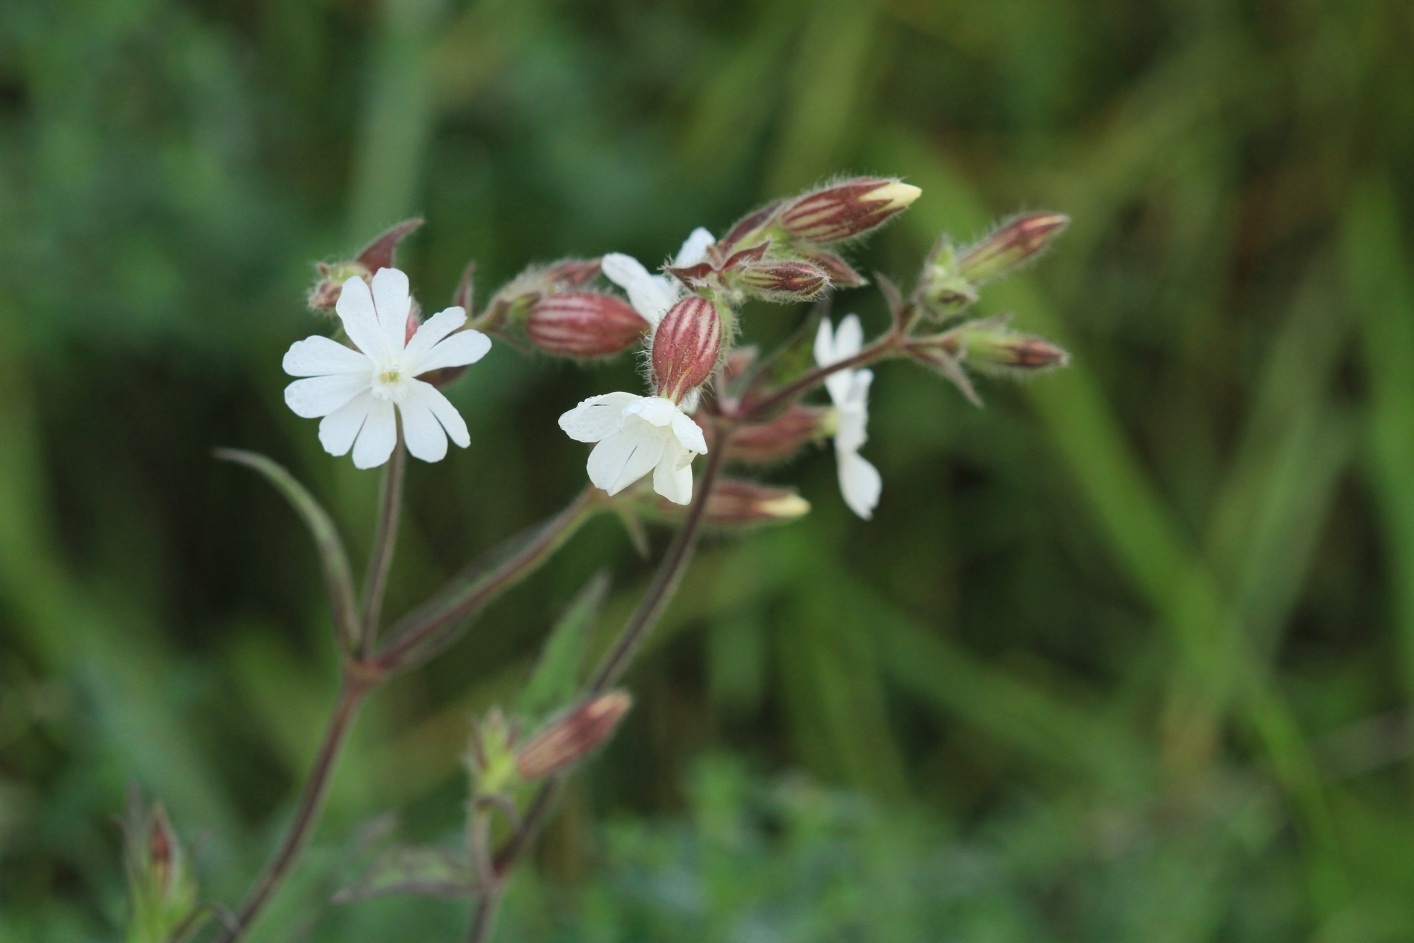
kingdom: Plantae
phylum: Tracheophyta
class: Magnoliopsida
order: Caryophyllales
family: Caryophyllaceae
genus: Silene
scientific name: Silene latifolia
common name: White campion
